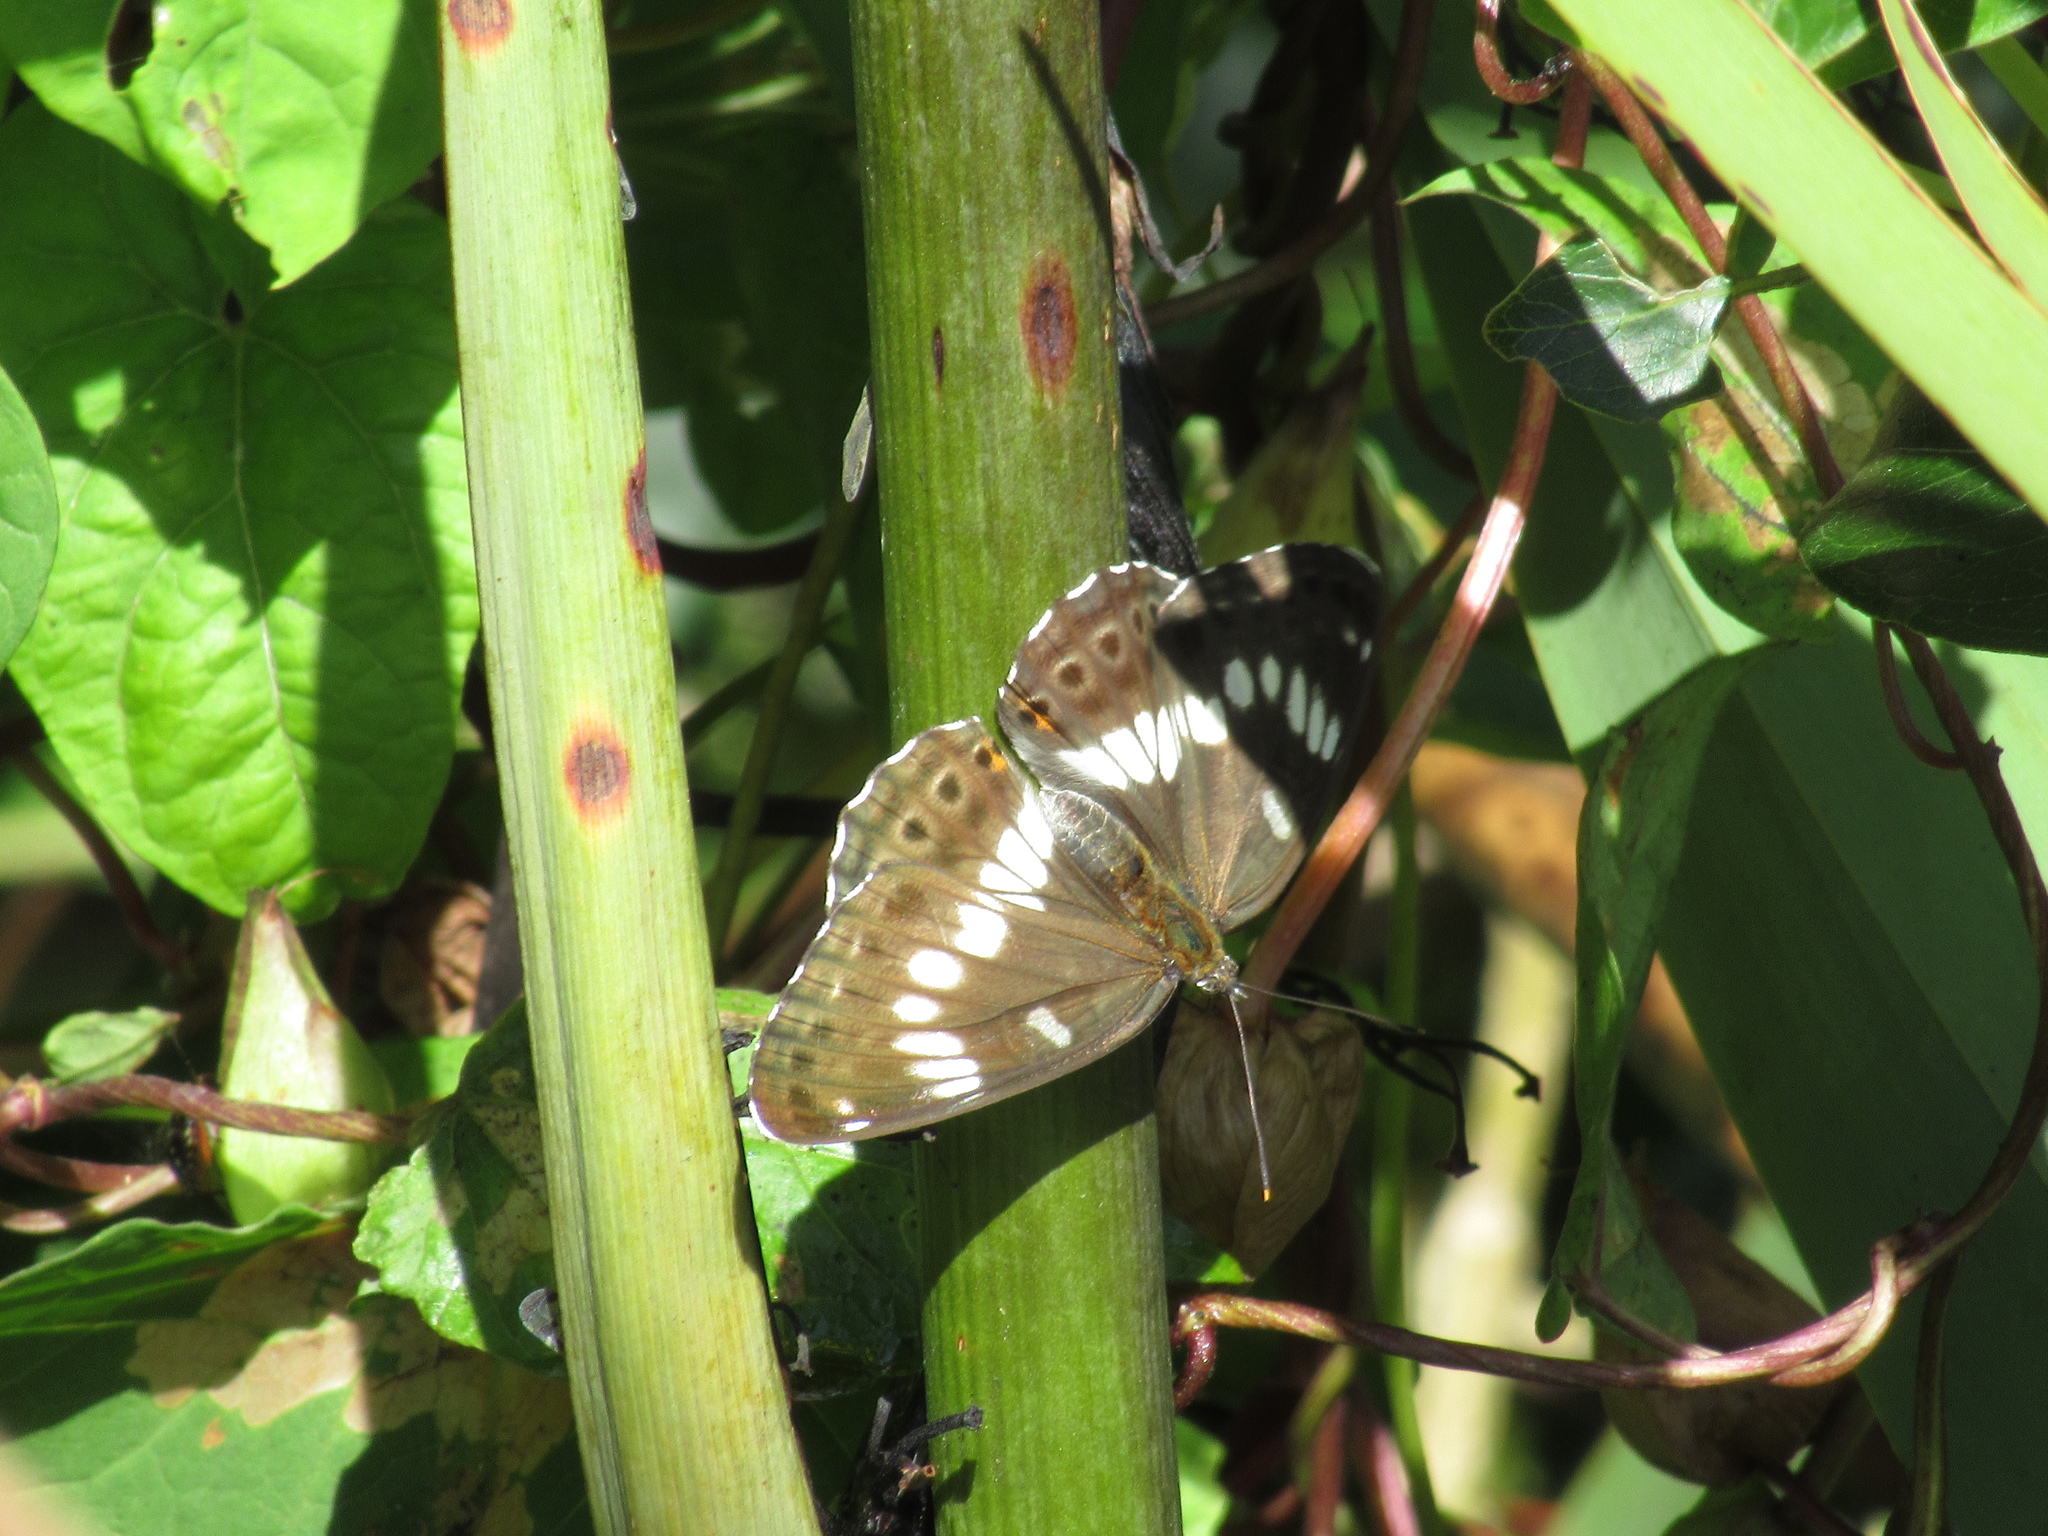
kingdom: Animalia
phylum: Arthropoda
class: Insecta
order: Lepidoptera
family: Nymphalidae
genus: Ladoga
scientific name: Ladoga camilla
